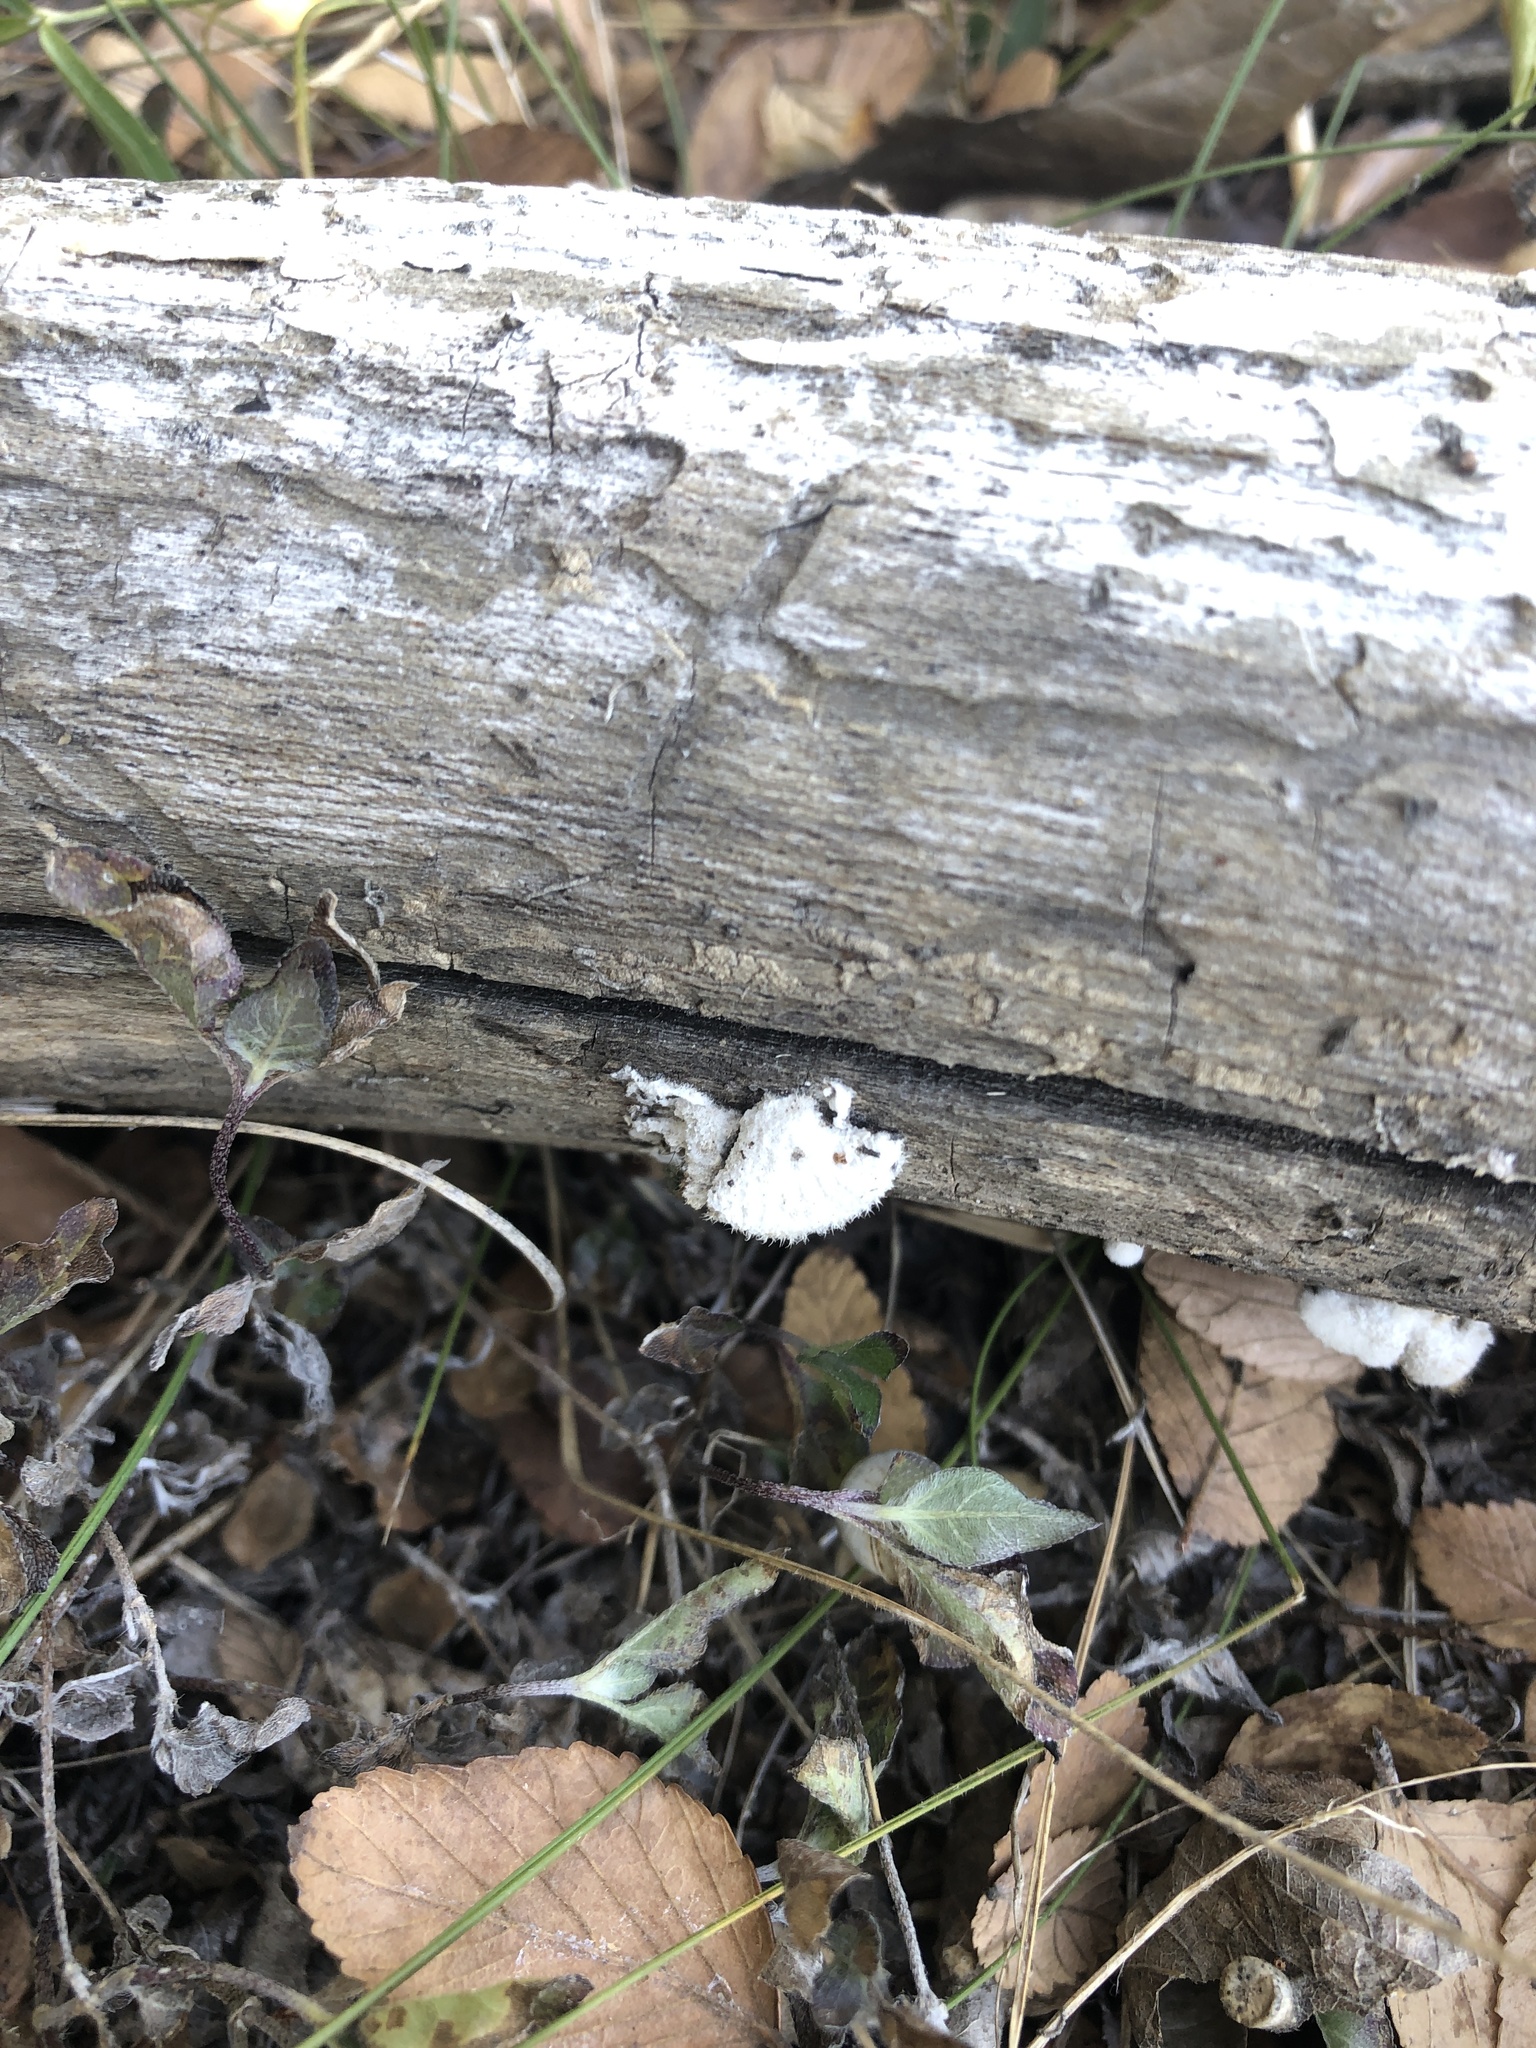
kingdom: Fungi
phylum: Basidiomycota
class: Agaricomycetes
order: Agaricales
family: Schizophyllaceae
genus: Schizophyllum
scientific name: Schizophyllum commune
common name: Common porecrust
